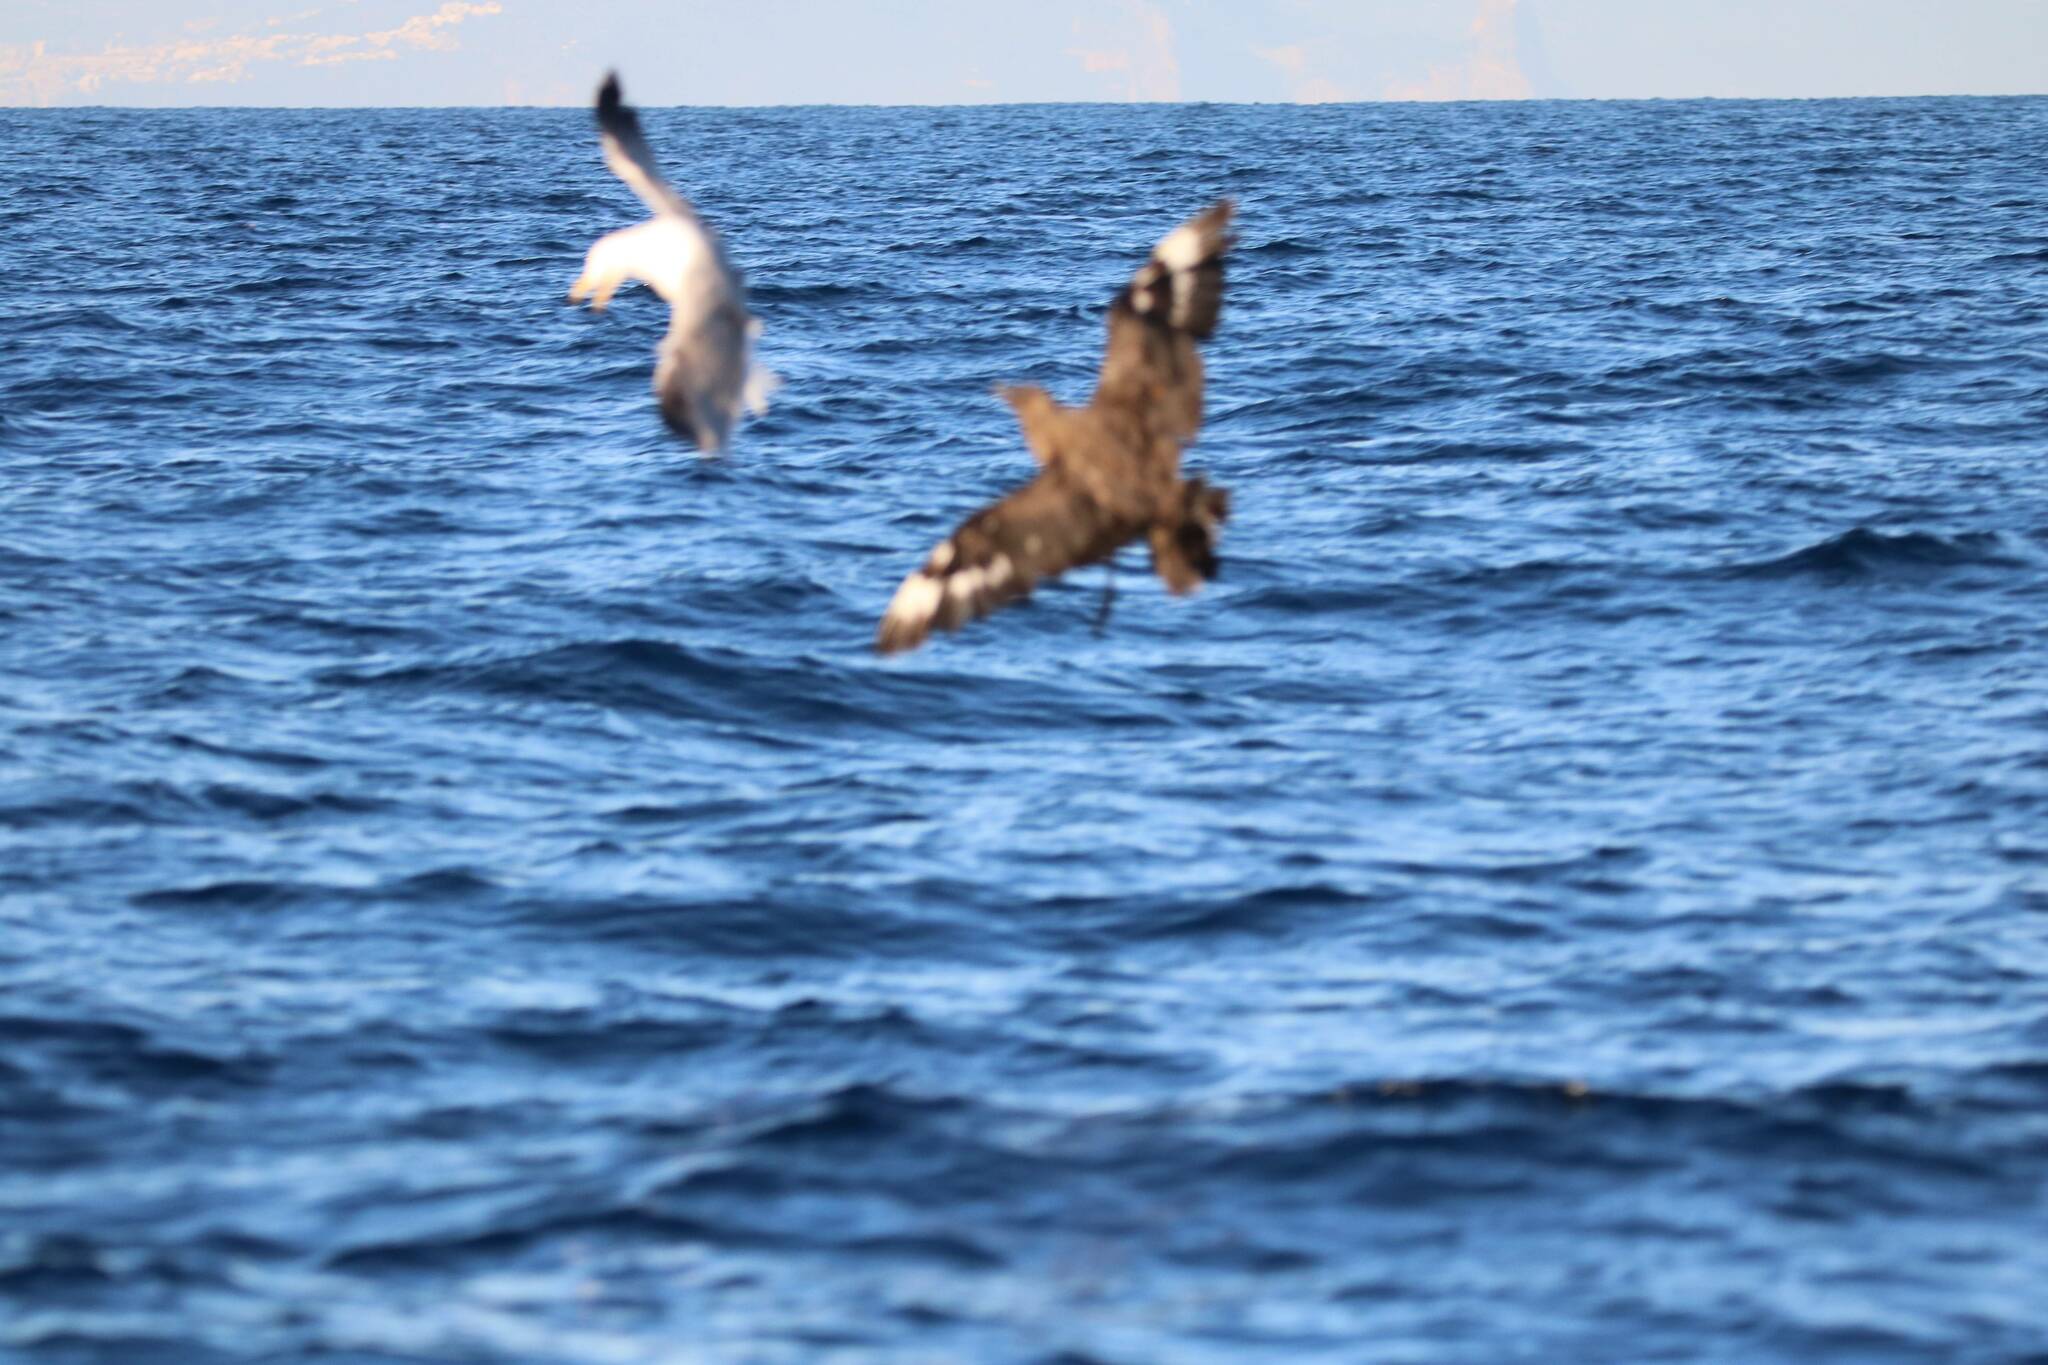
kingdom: Animalia
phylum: Chordata
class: Aves
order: Charadriiformes
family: Stercorariidae
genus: Stercorarius
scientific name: Stercorarius skua
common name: Great skua
